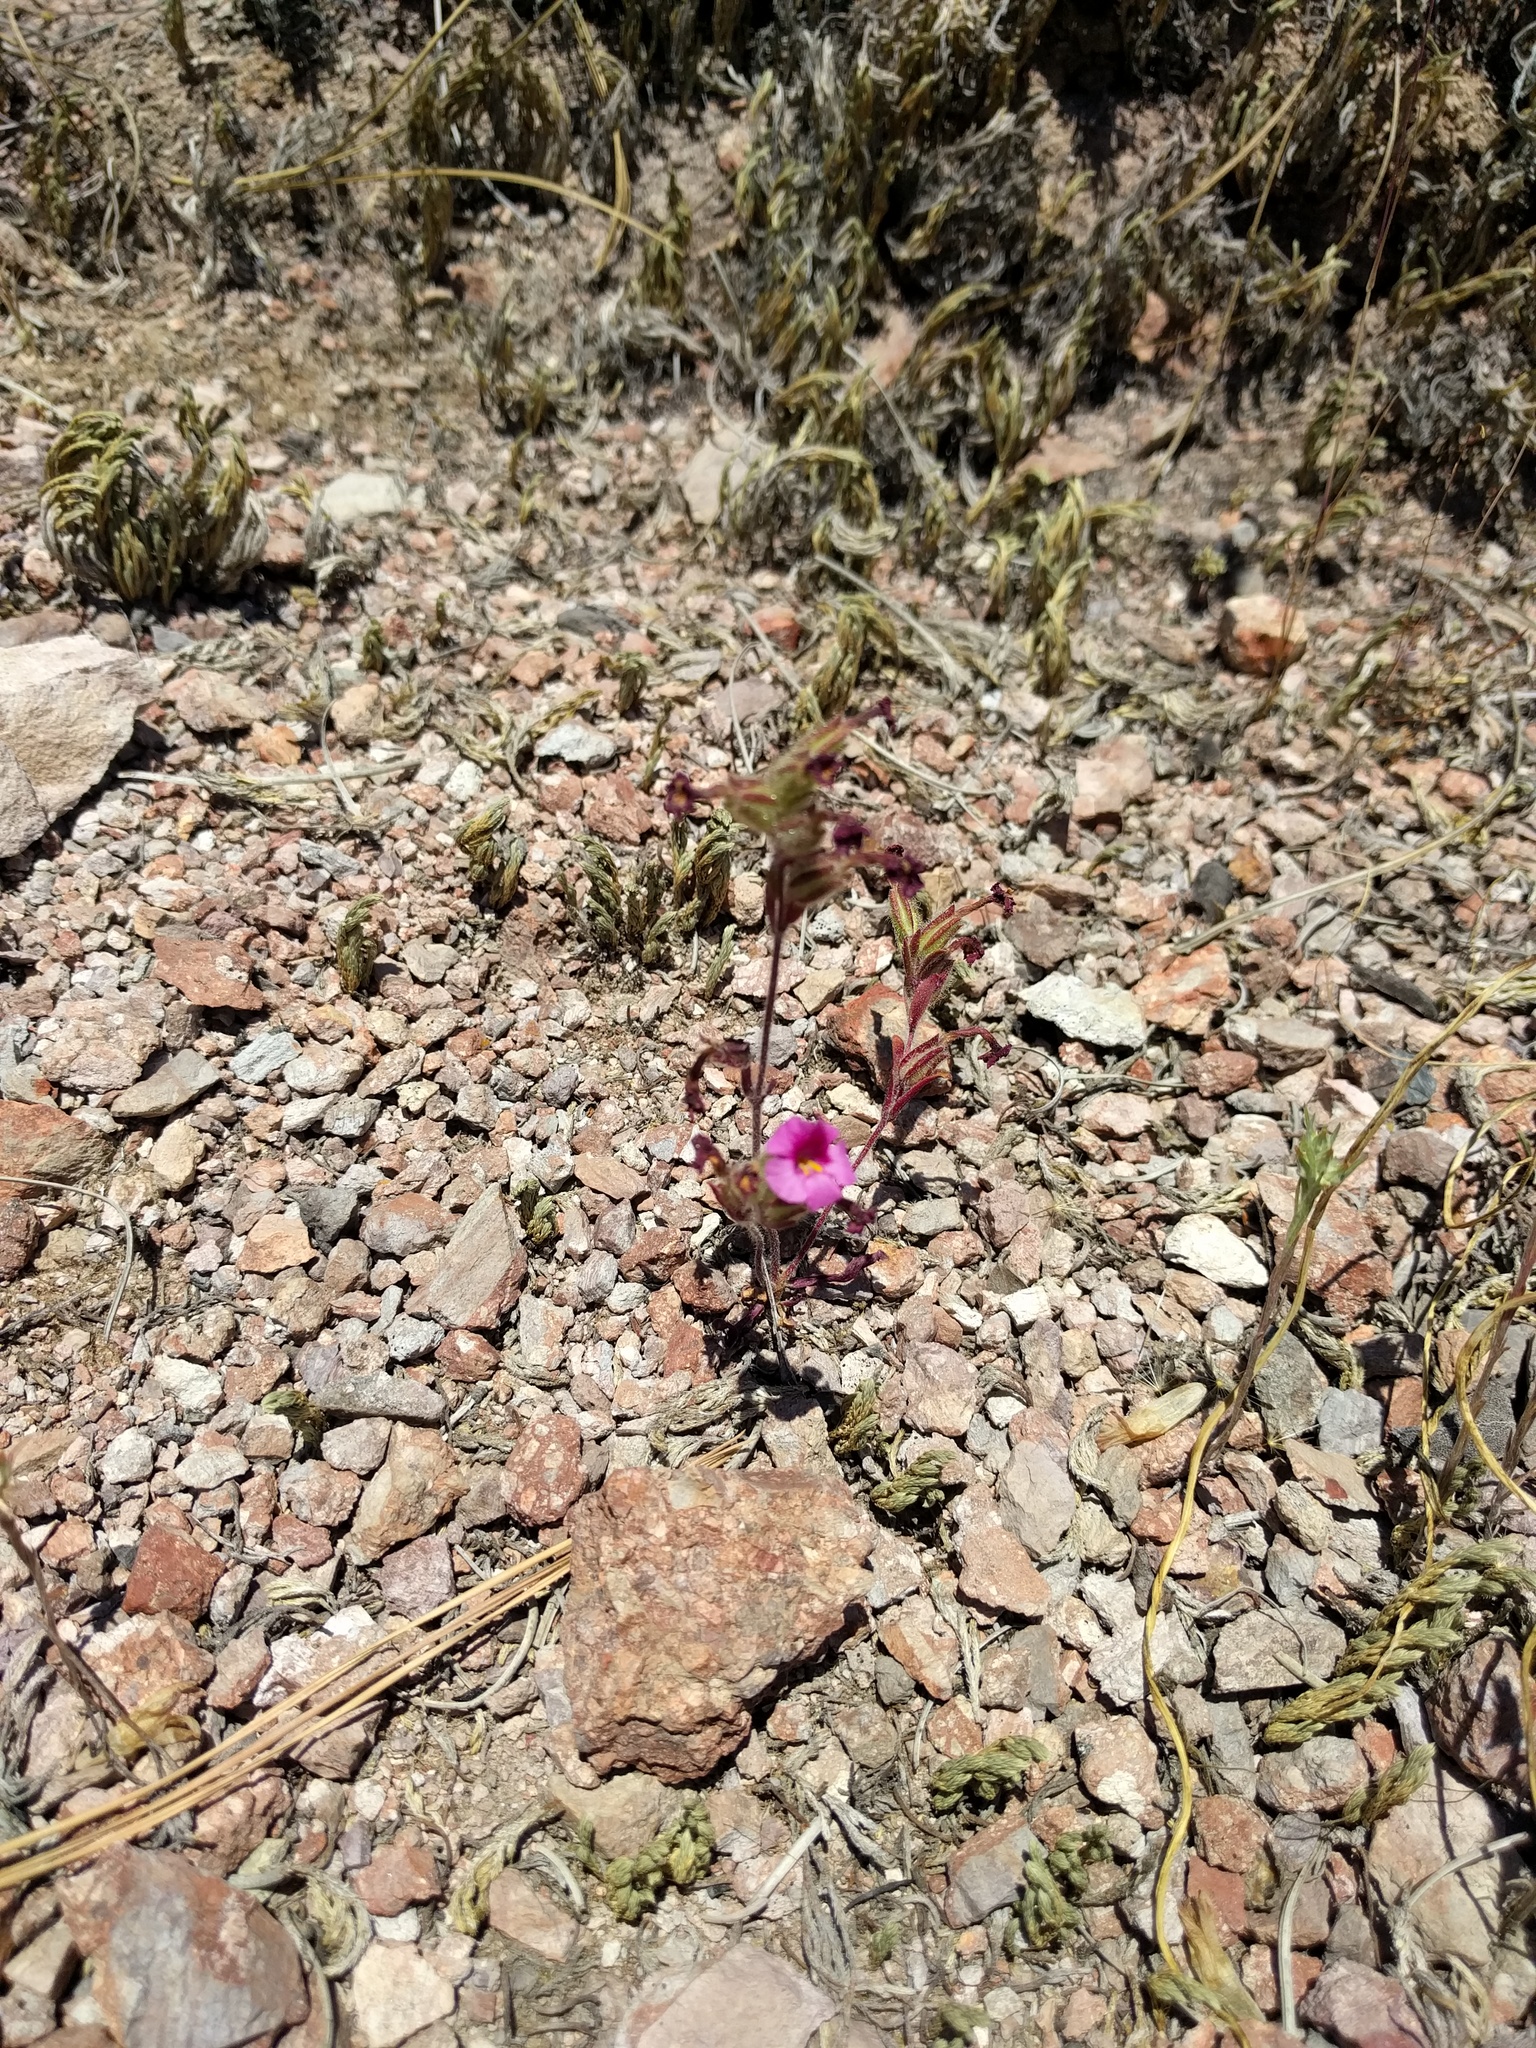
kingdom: Plantae
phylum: Tracheophyta
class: Magnoliopsida
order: Lamiales
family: Phrymaceae
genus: Diplacus
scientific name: Diplacus fremontii
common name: Fremont's monkey-flower
